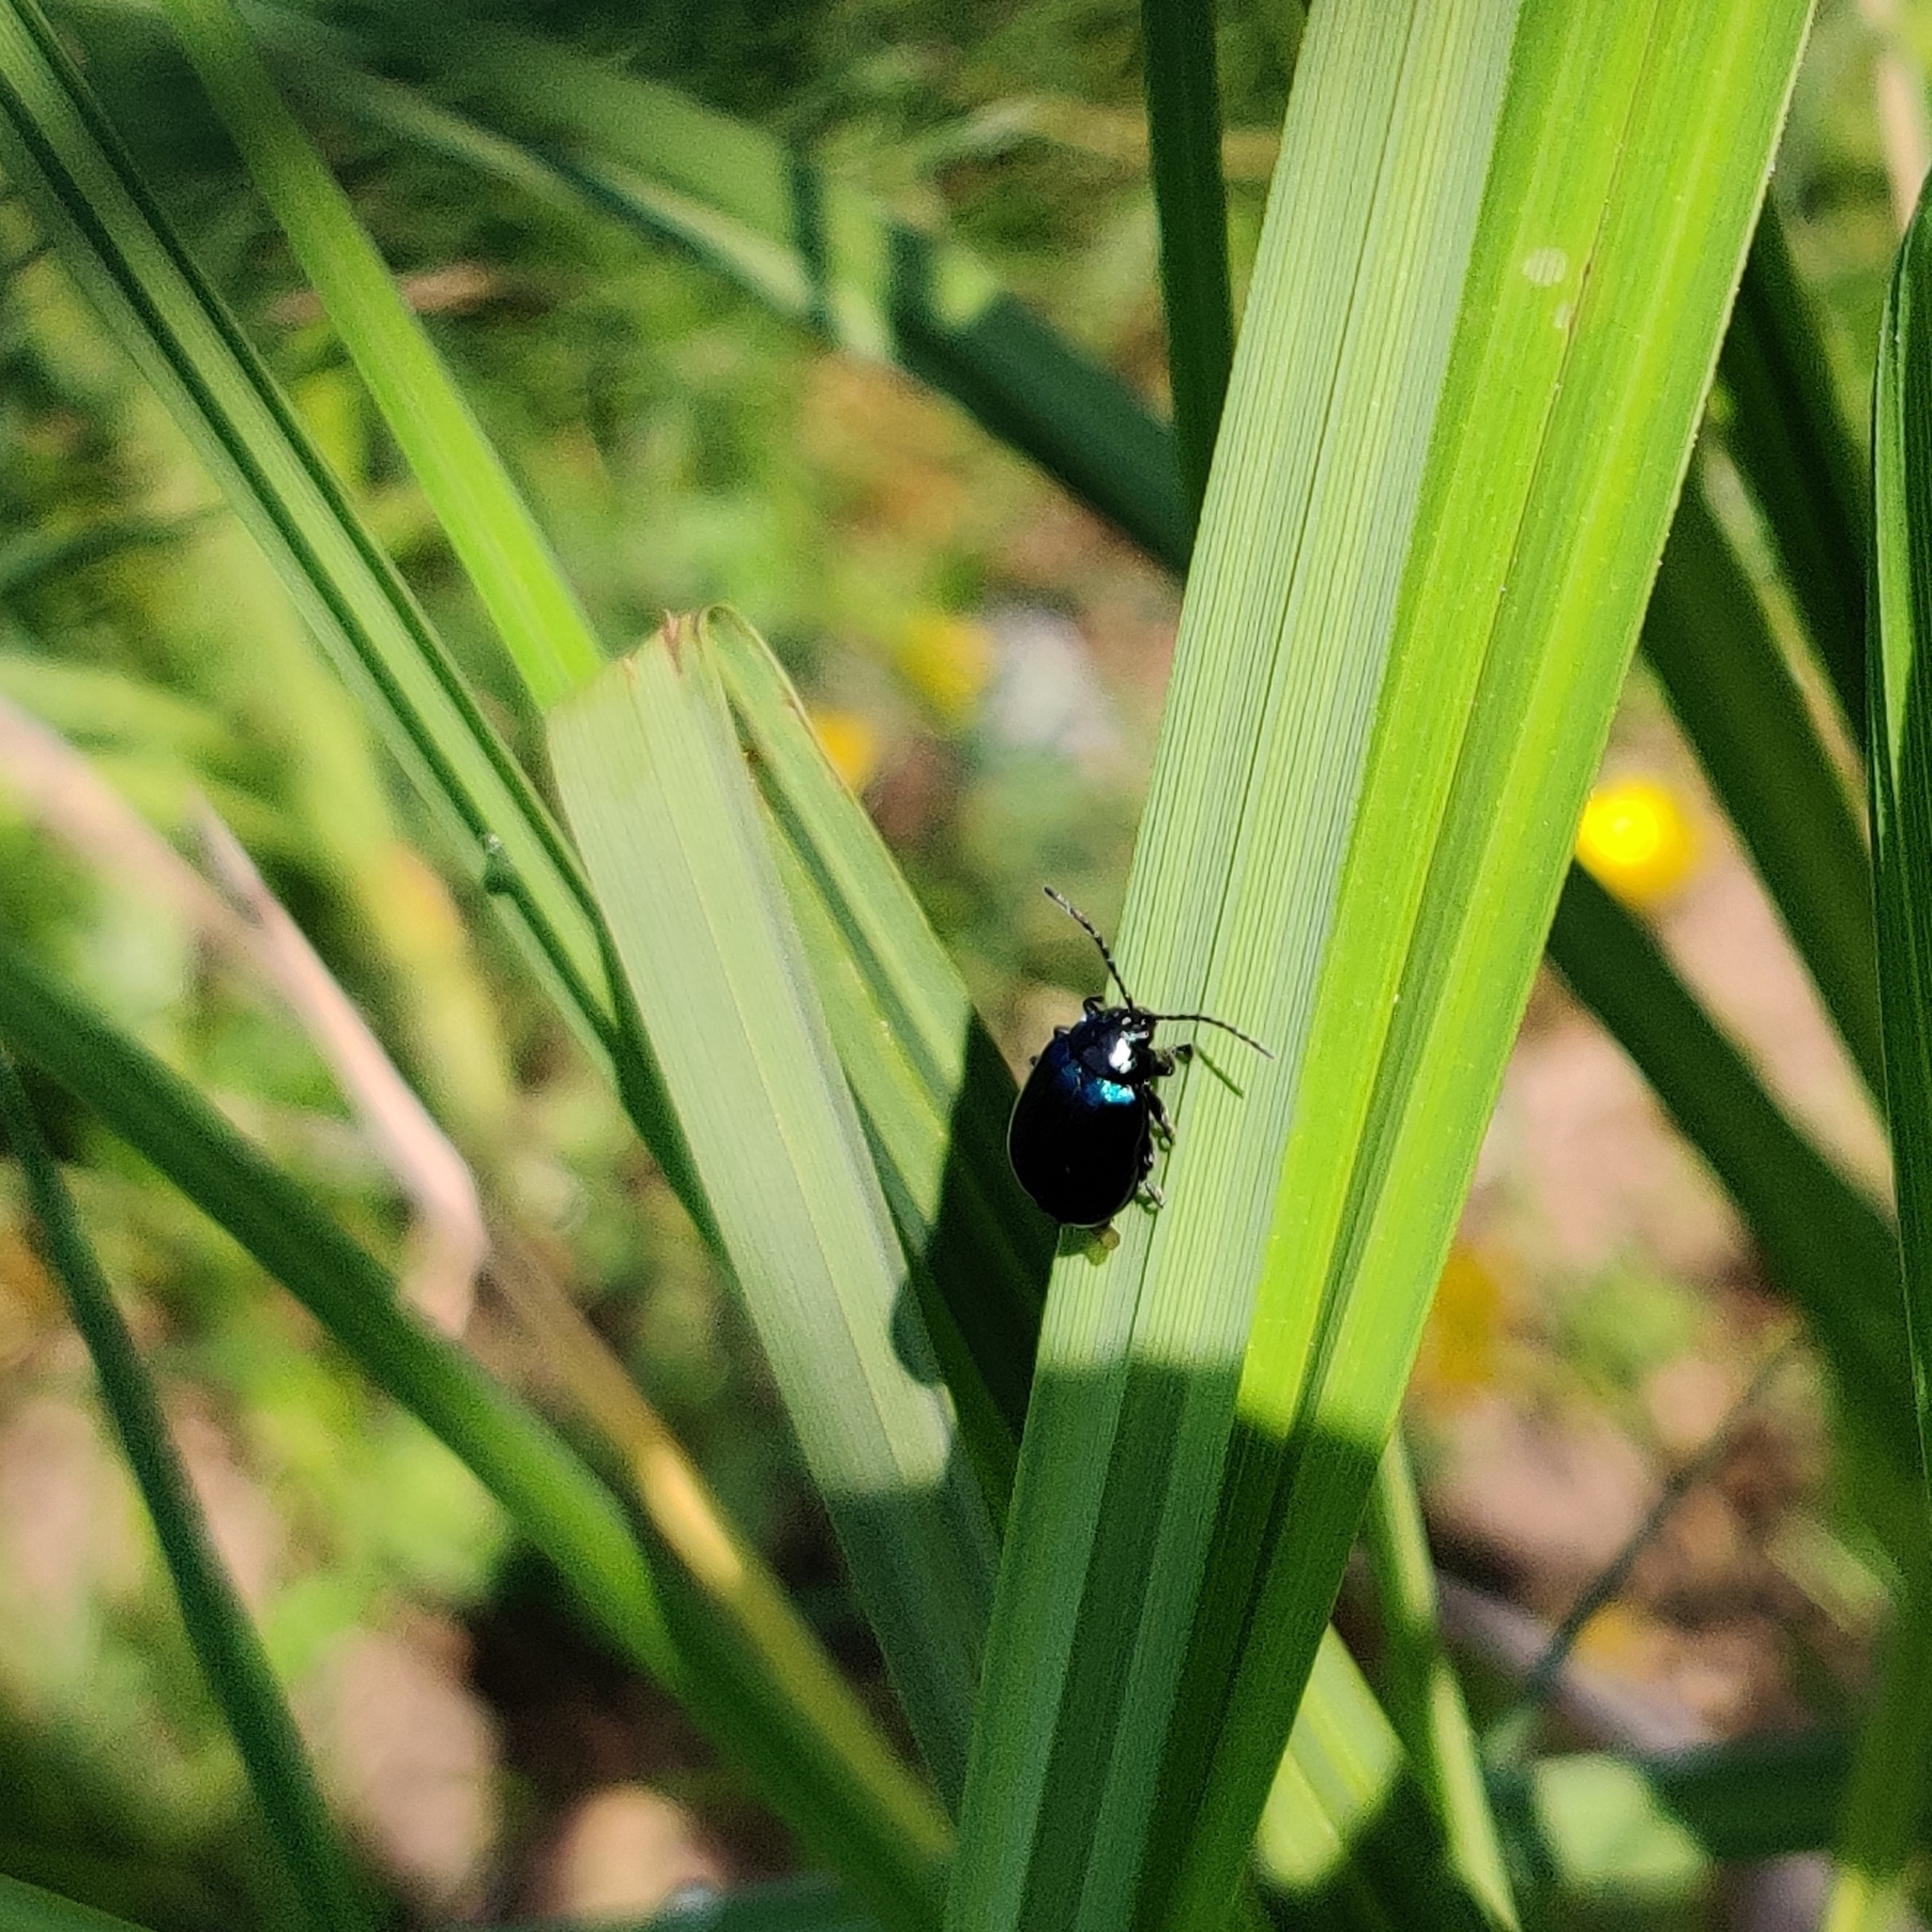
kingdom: Animalia
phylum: Arthropoda
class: Insecta
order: Coleoptera
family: Chrysomelidae
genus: Agelastica
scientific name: Agelastica alni
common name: Alder leaf beetle
